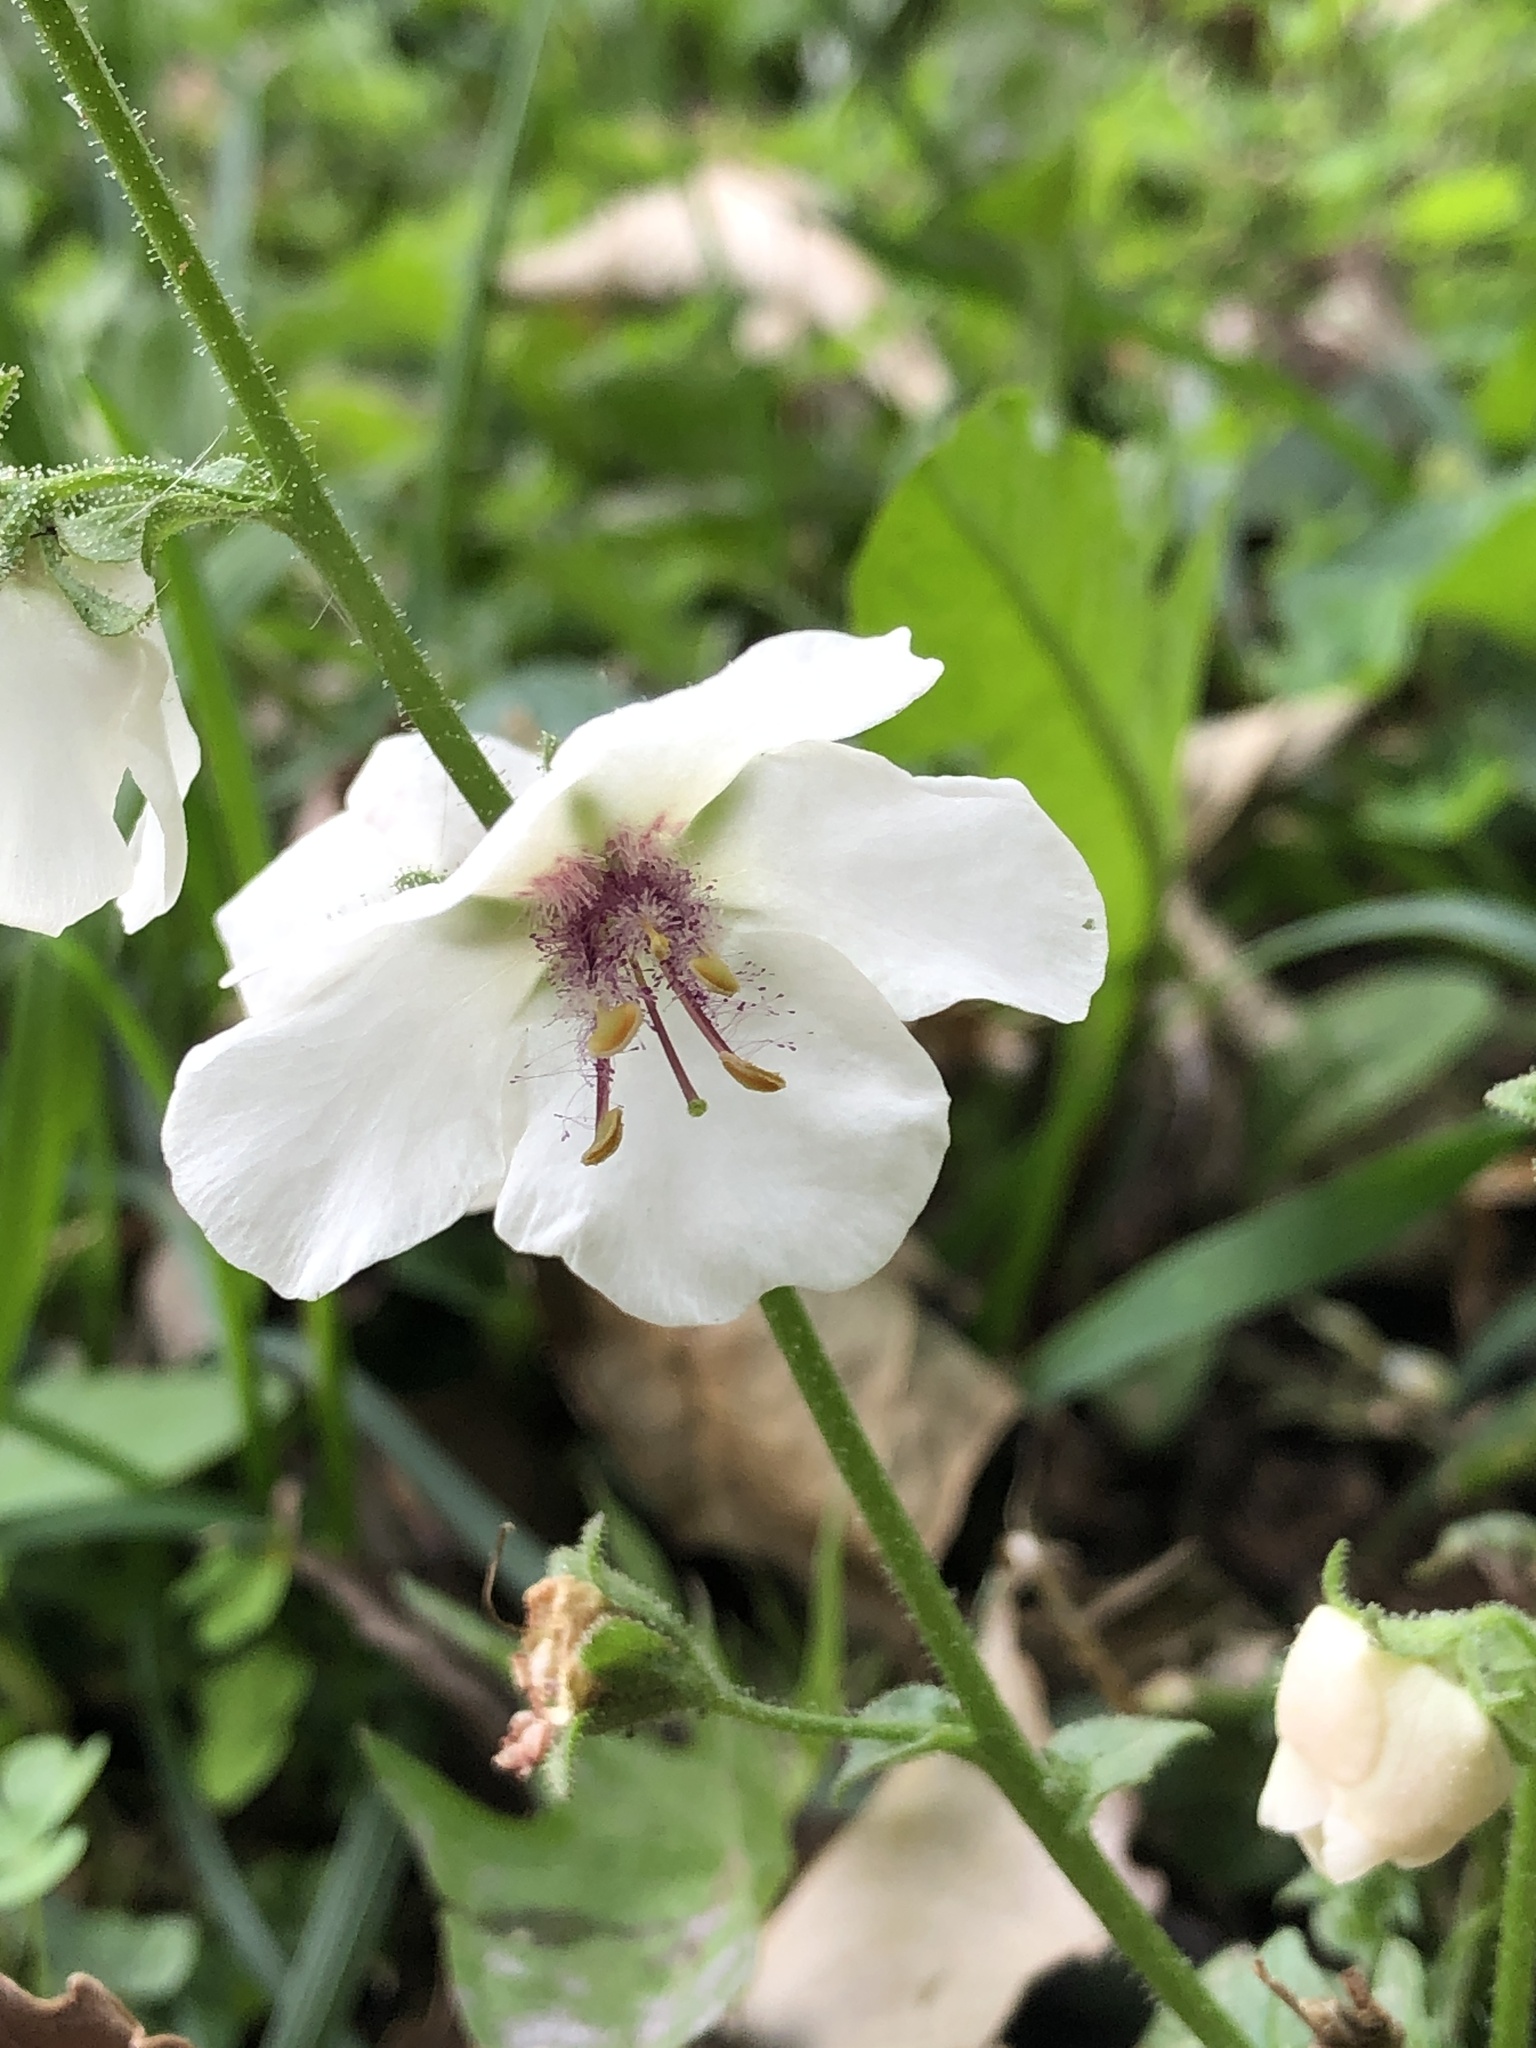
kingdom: Plantae
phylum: Tracheophyta
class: Magnoliopsida
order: Lamiales
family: Scrophulariaceae
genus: Verbascum
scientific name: Verbascum blattaria
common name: Moth mullein
